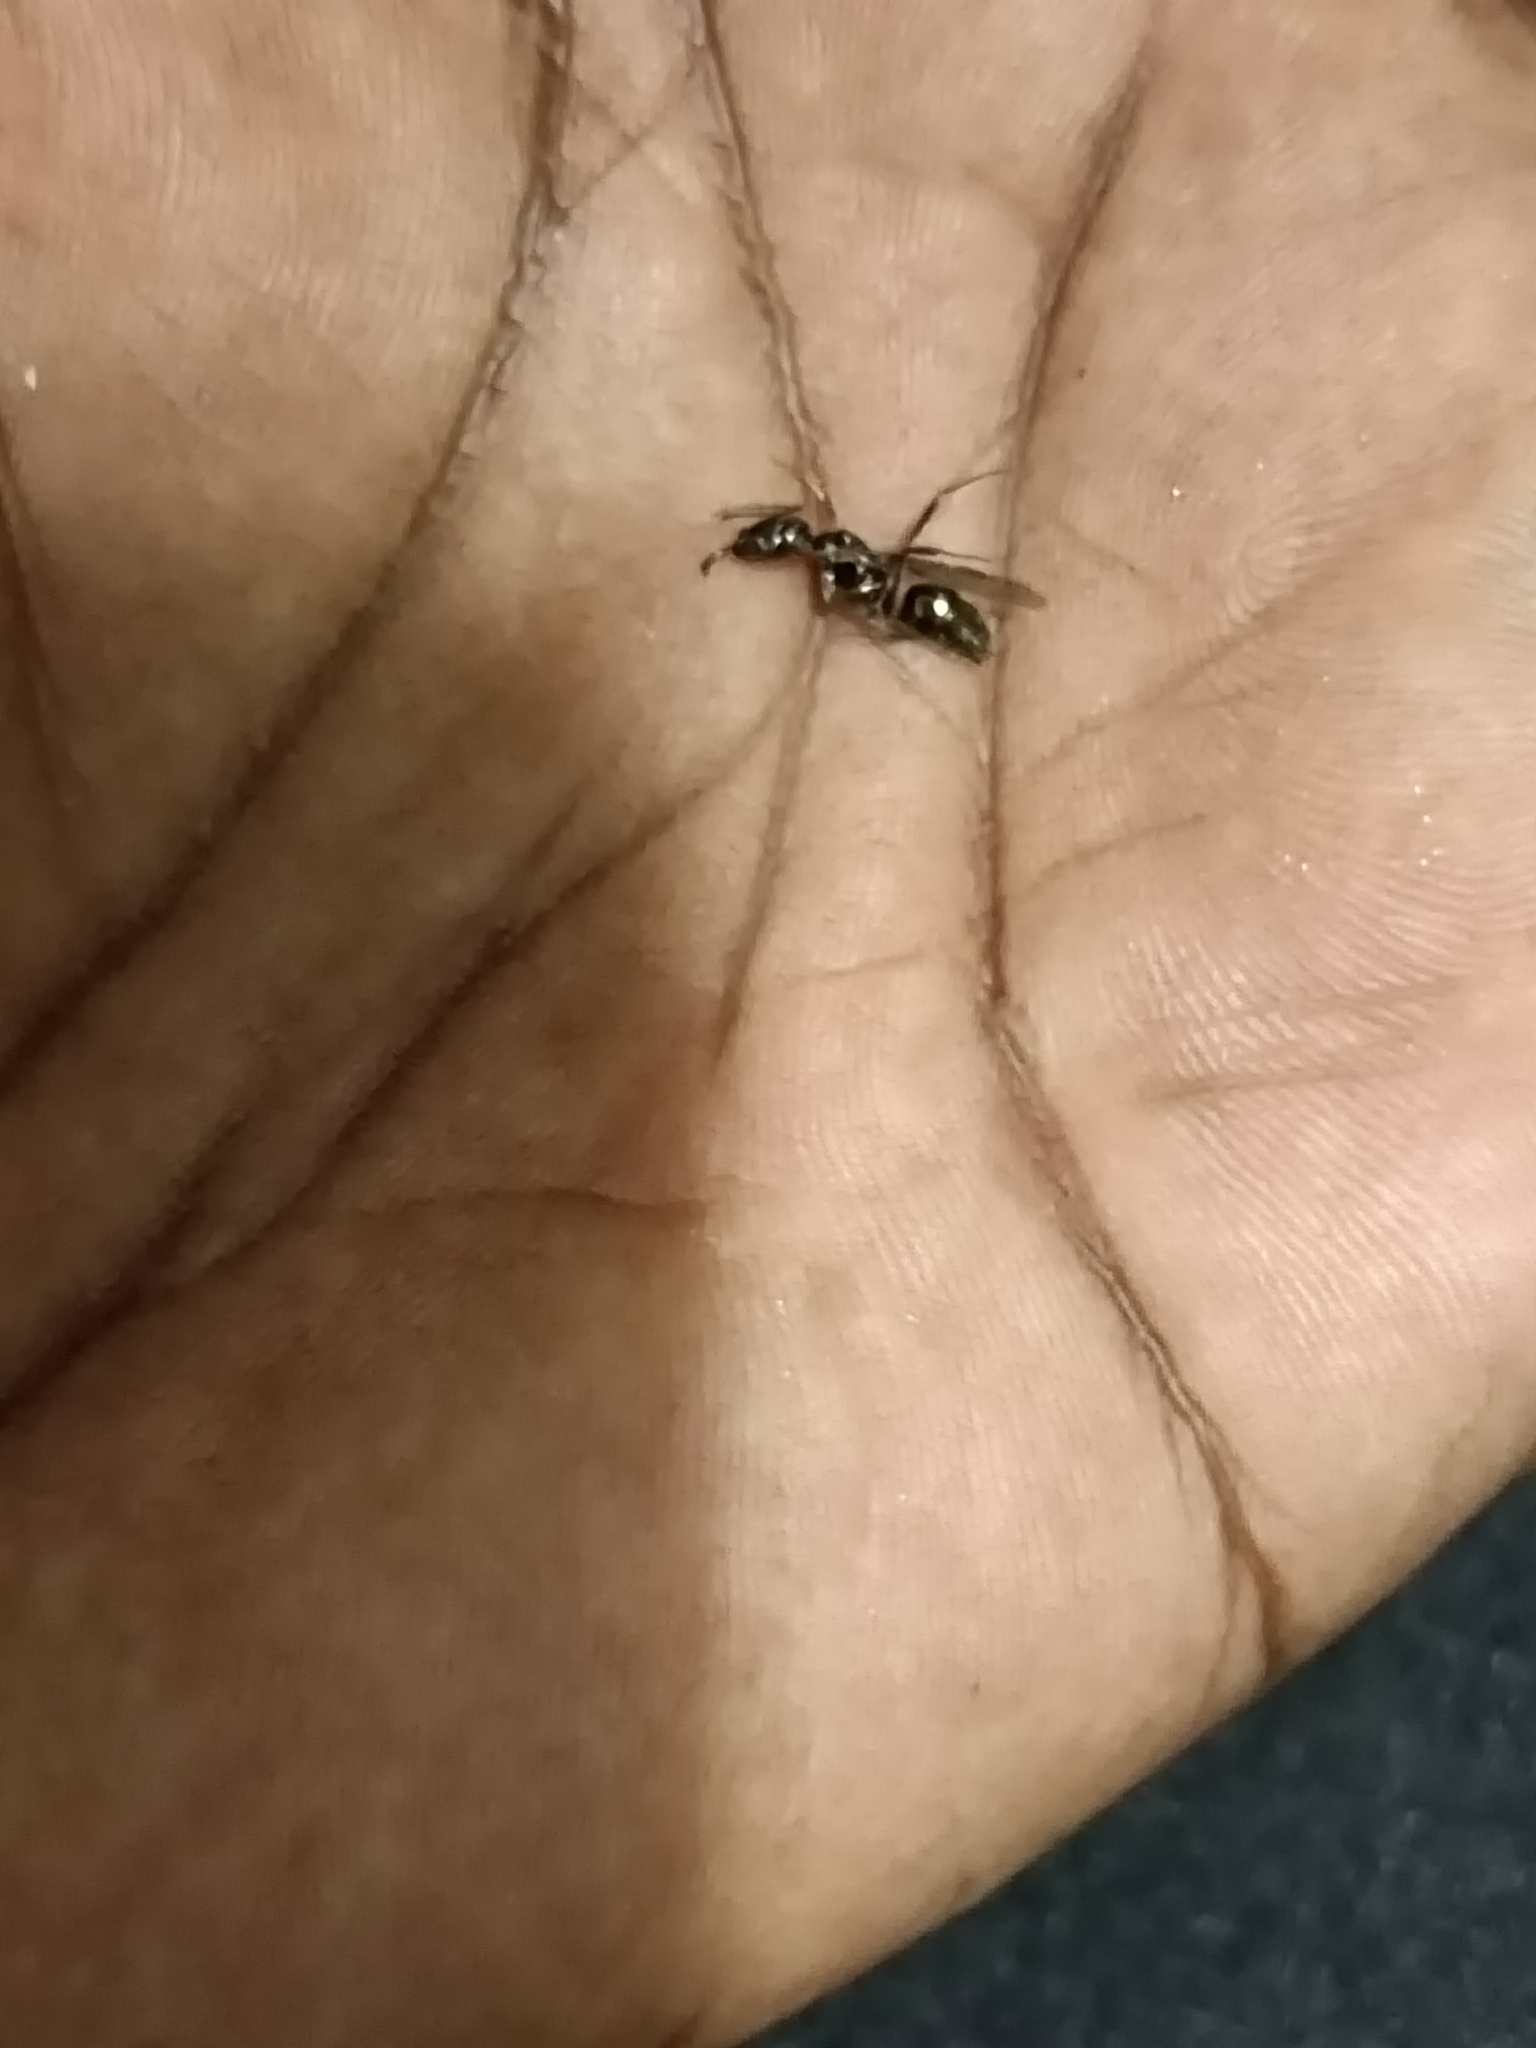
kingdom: Animalia
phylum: Arthropoda
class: Insecta
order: Hymenoptera
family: Formicidae
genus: Odontomachus
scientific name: Odontomachus simillimus
